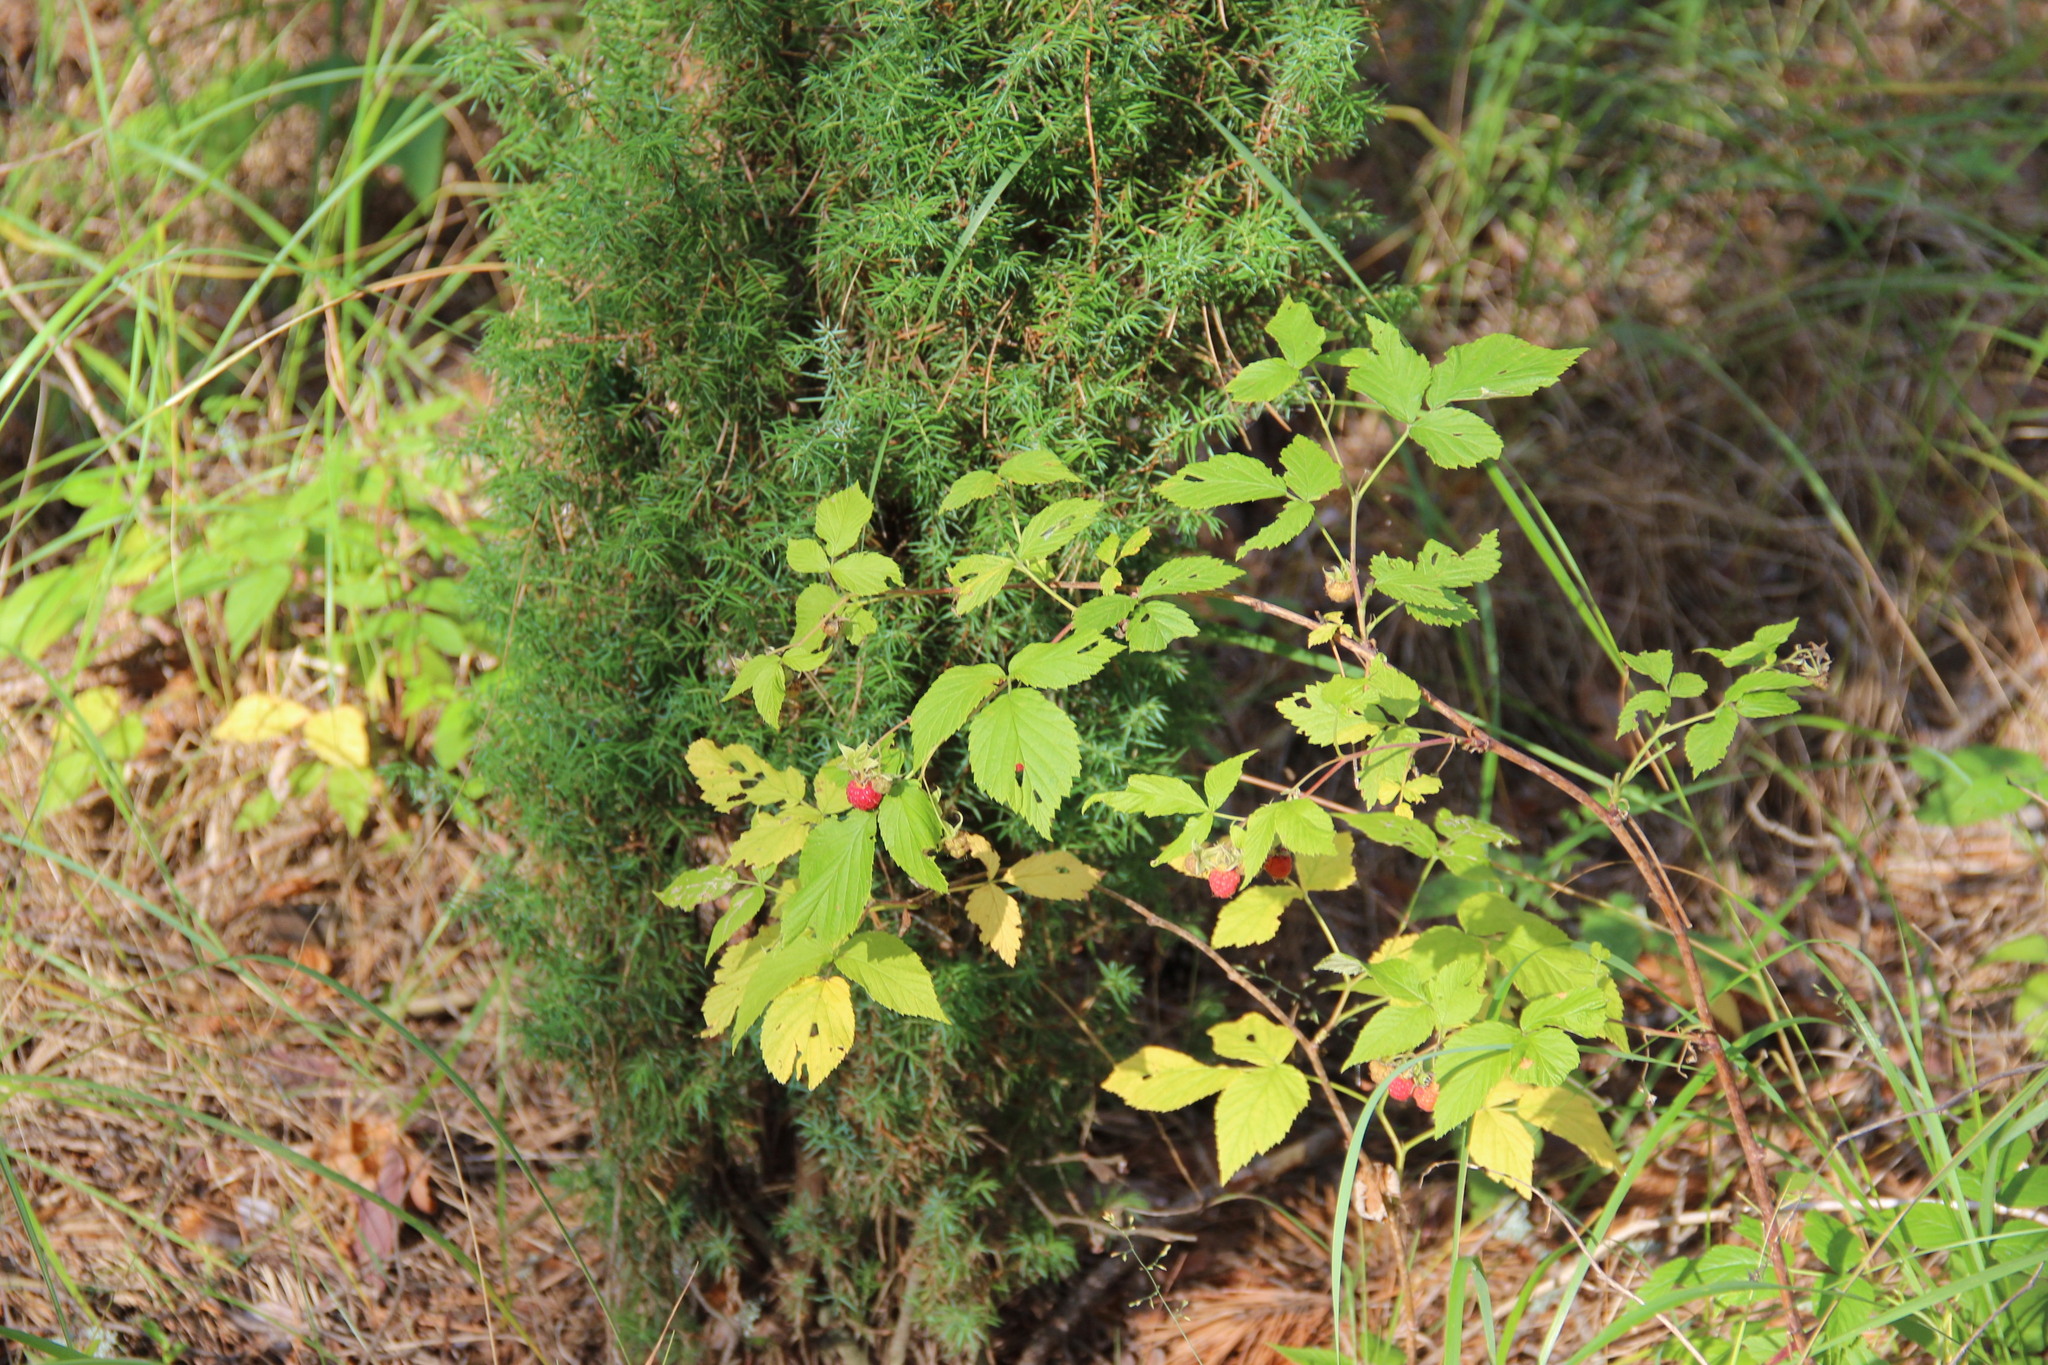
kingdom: Plantae
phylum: Tracheophyta
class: Magnoliopsida
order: Rosales
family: Rosaceae
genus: Rubus
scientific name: Rubus idaeus
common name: Raspberry
